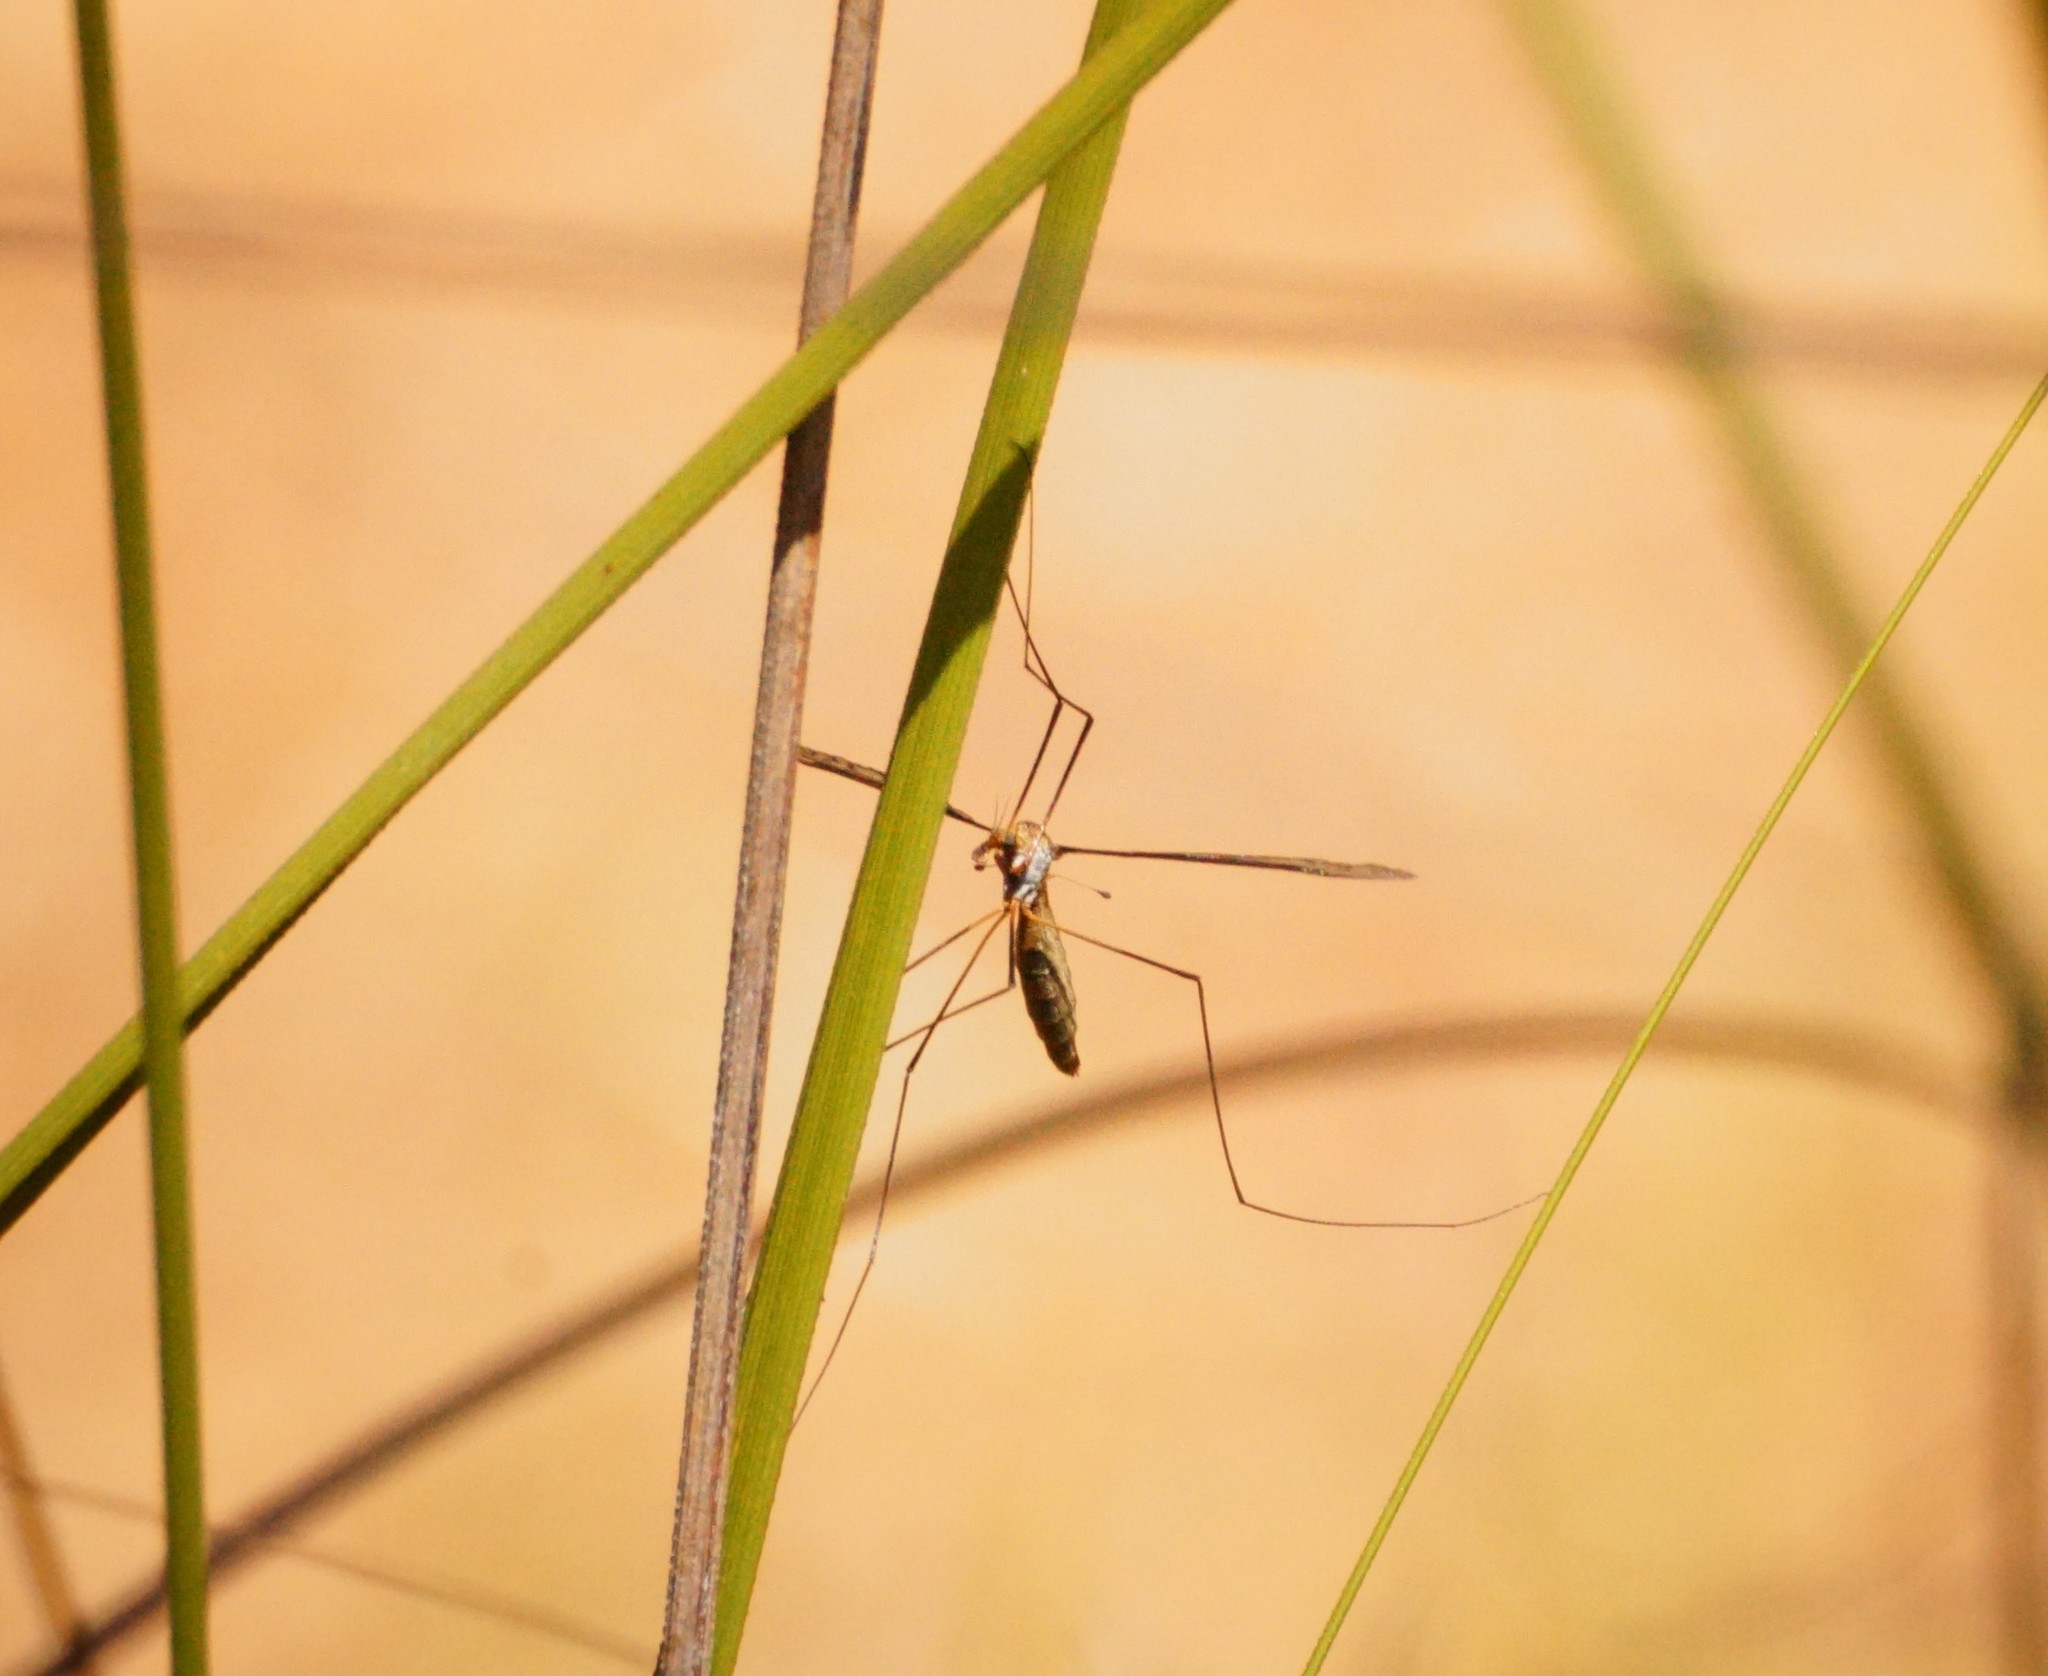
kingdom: Animalia
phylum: Arthropoda
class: Insecta
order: Diptera
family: Tipulidae
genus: Macromastix
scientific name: Macromastix
